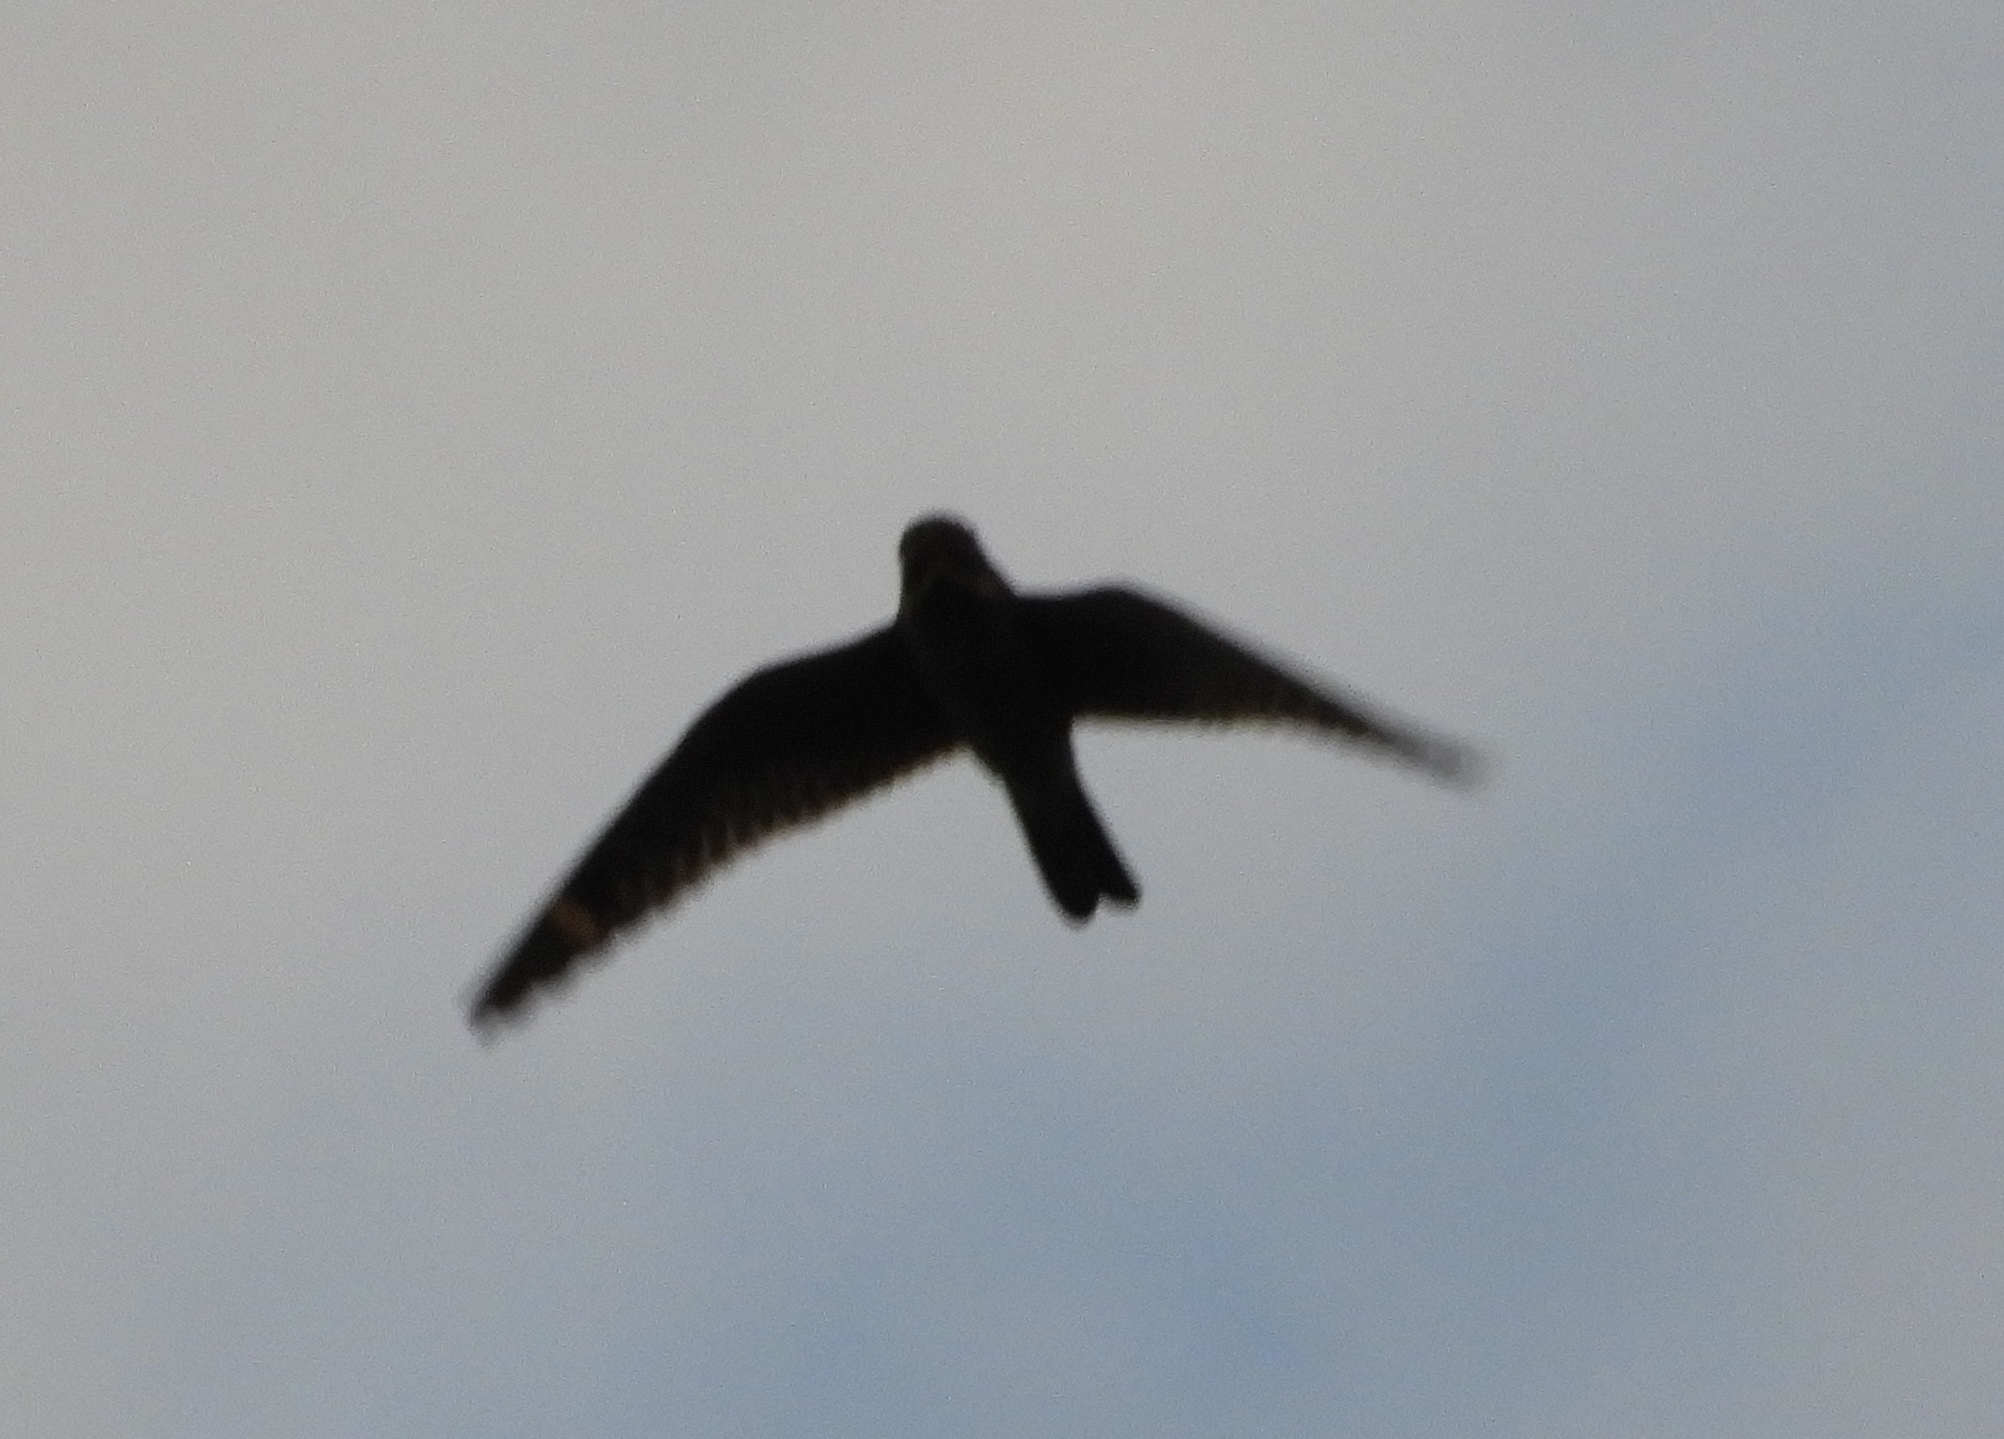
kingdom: Animalia
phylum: Chordata
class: Aves
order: Caprimulgiformes
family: Caprimulgidae
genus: Chordeiles
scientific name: Chordeiles acutipennis
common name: Lesser nighthawk
